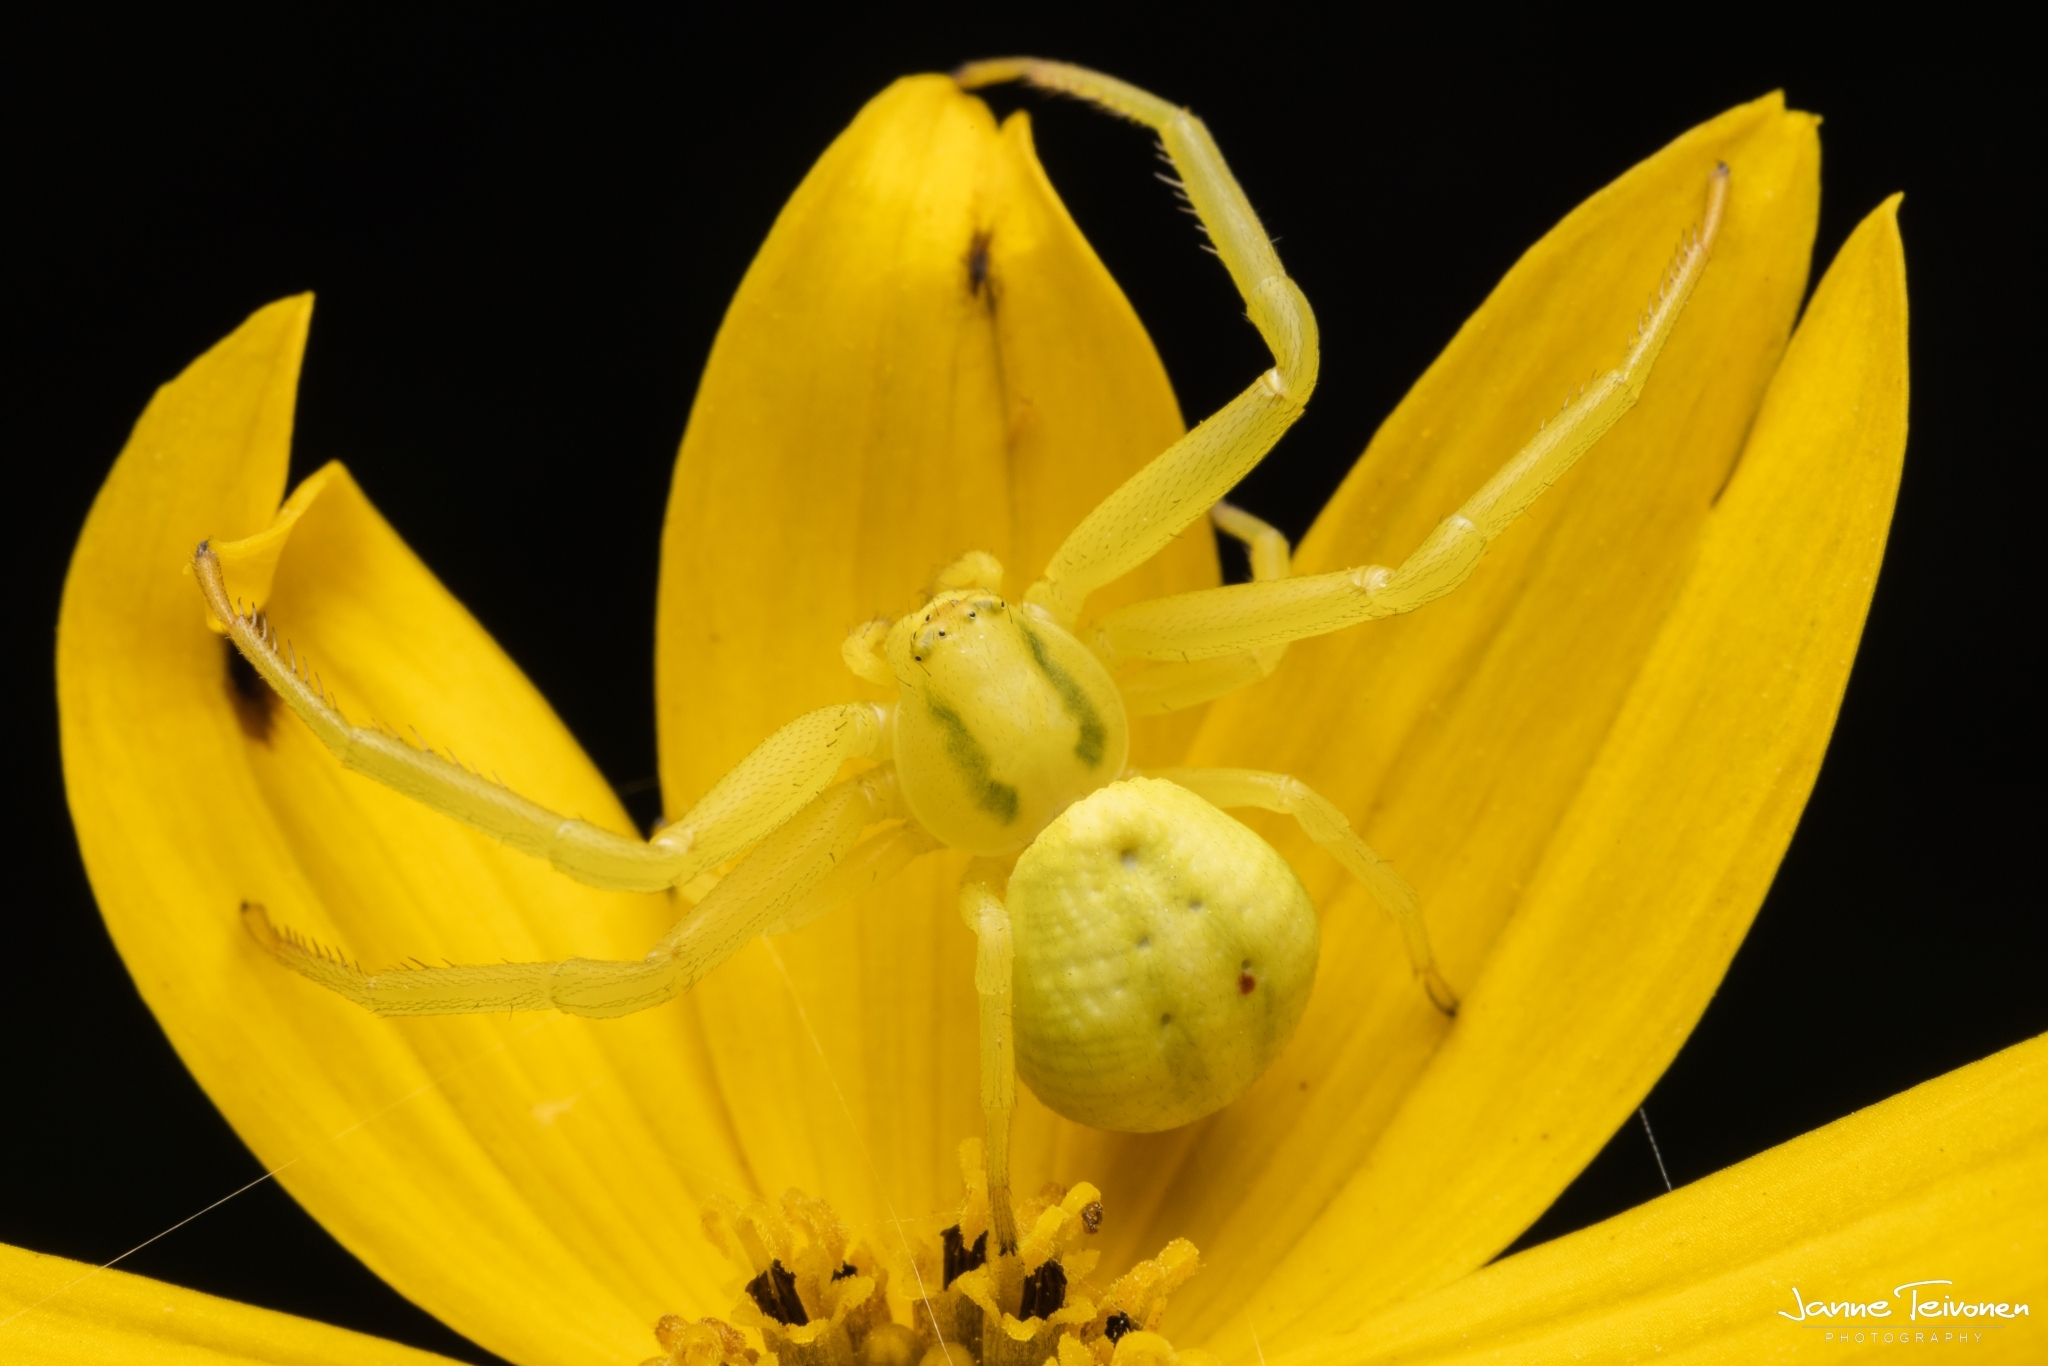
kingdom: Animalia
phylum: Arthropoda
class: Arachnida
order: Araneae
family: Thomisidae
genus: Misumena
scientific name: Misumena vatia
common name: Goldenrod crab spider
